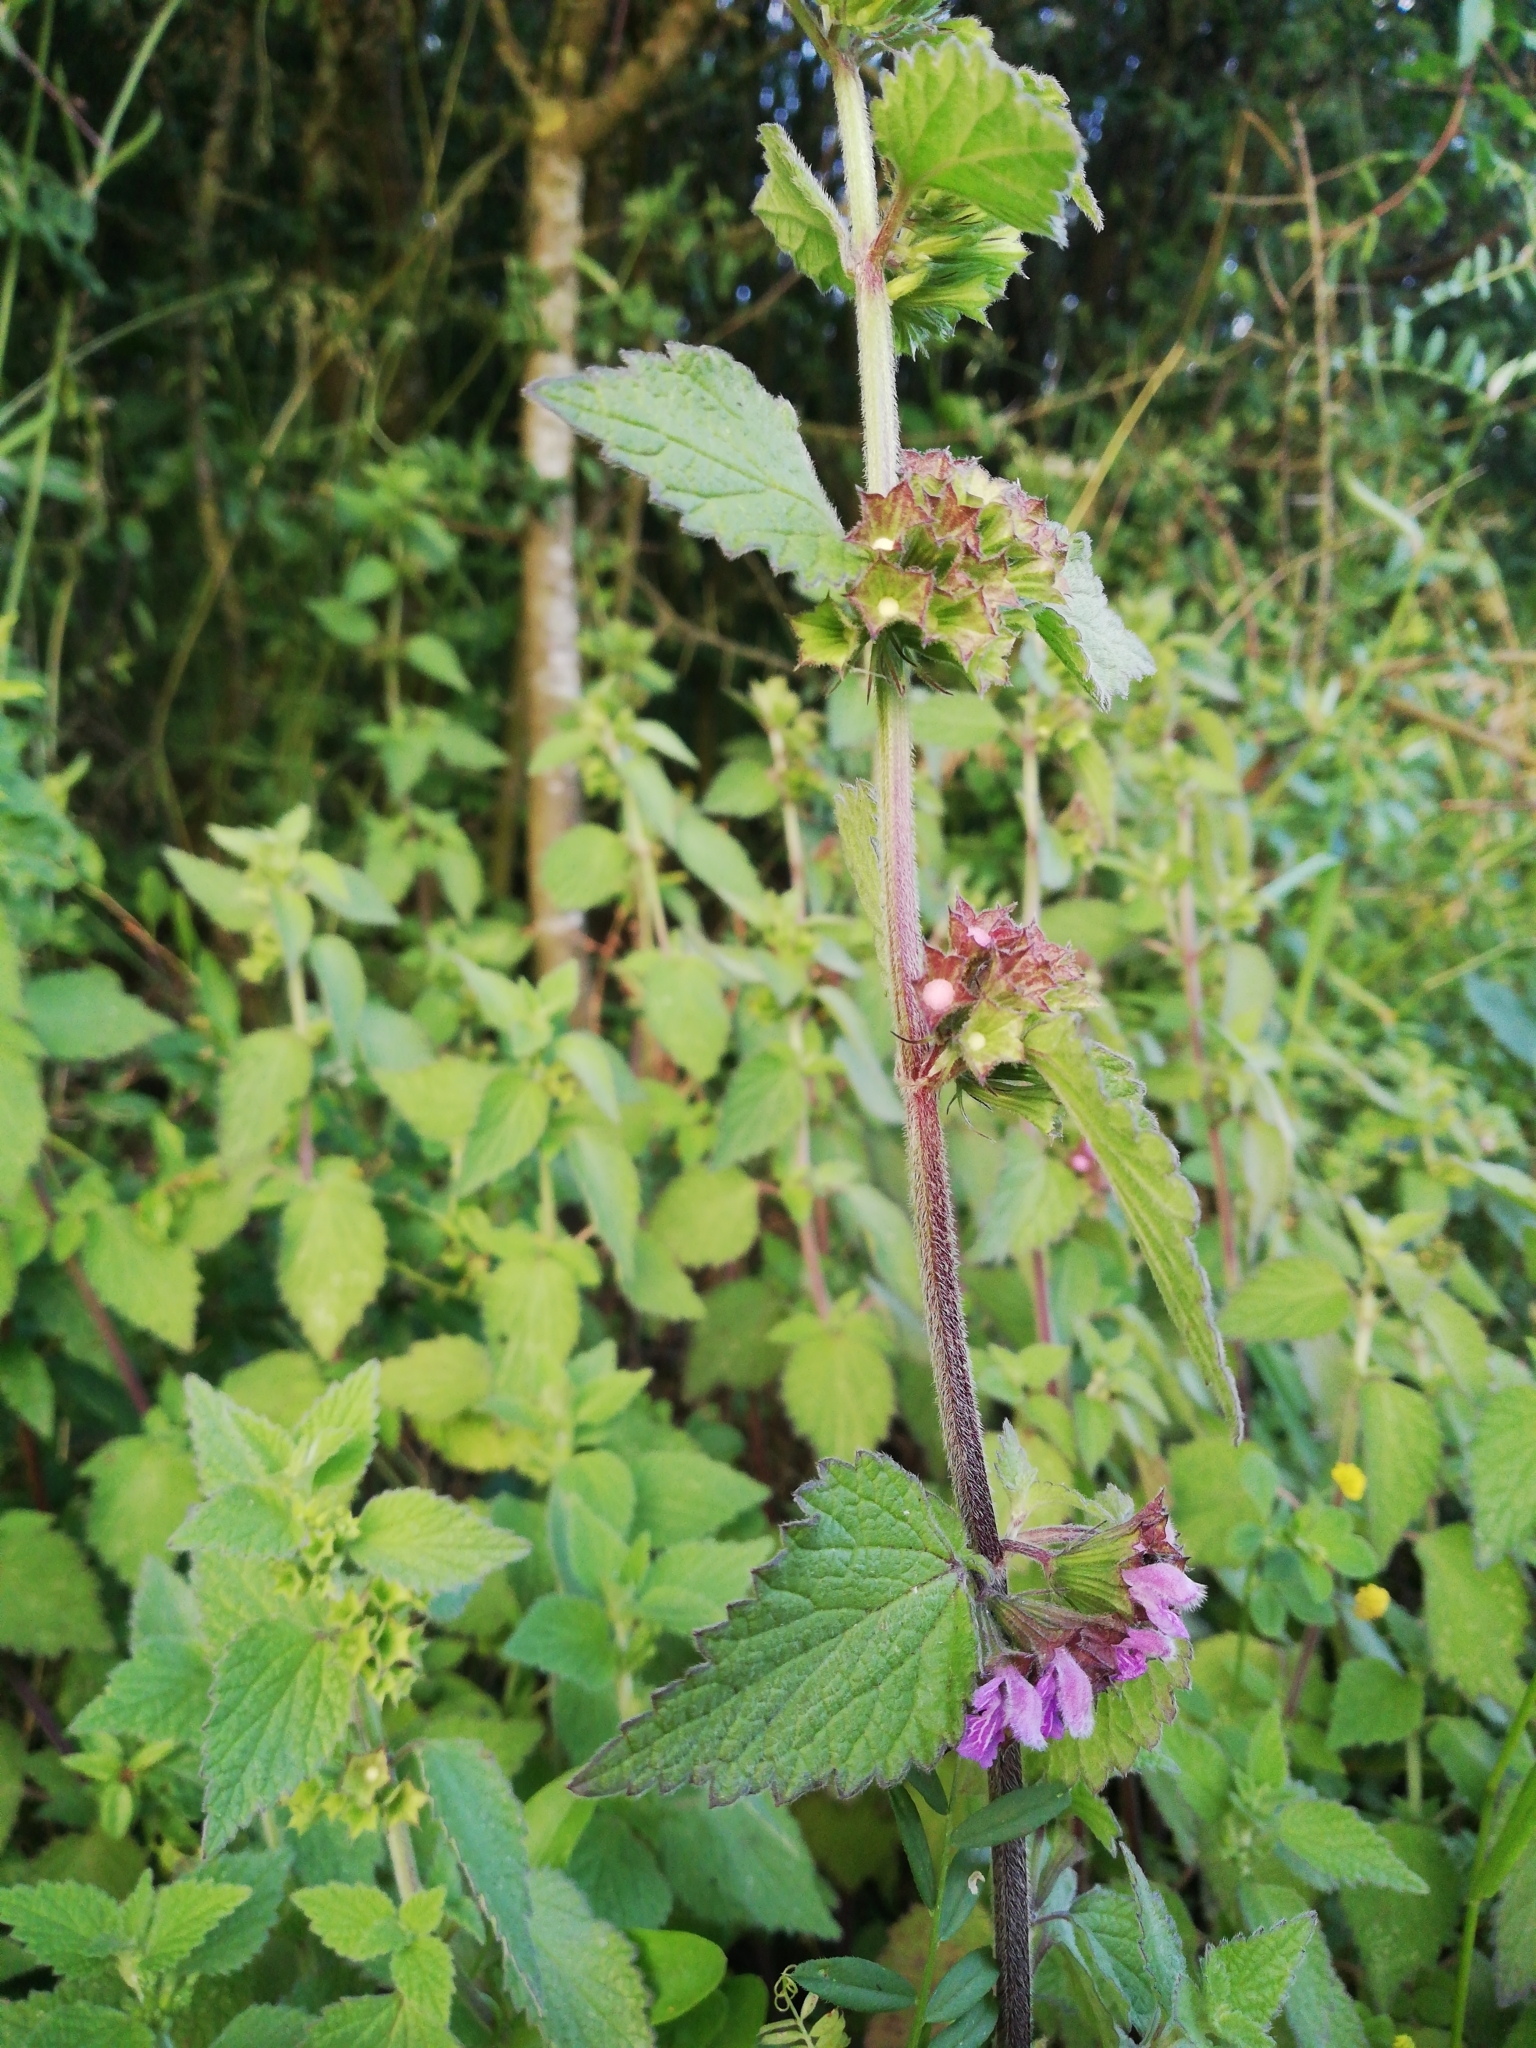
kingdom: Plantae
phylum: Tracheophyta
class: Magnoliopsida
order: Lamiales
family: Lamiaceae
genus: Ballota
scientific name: Ballota nigra
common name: Black horehound
